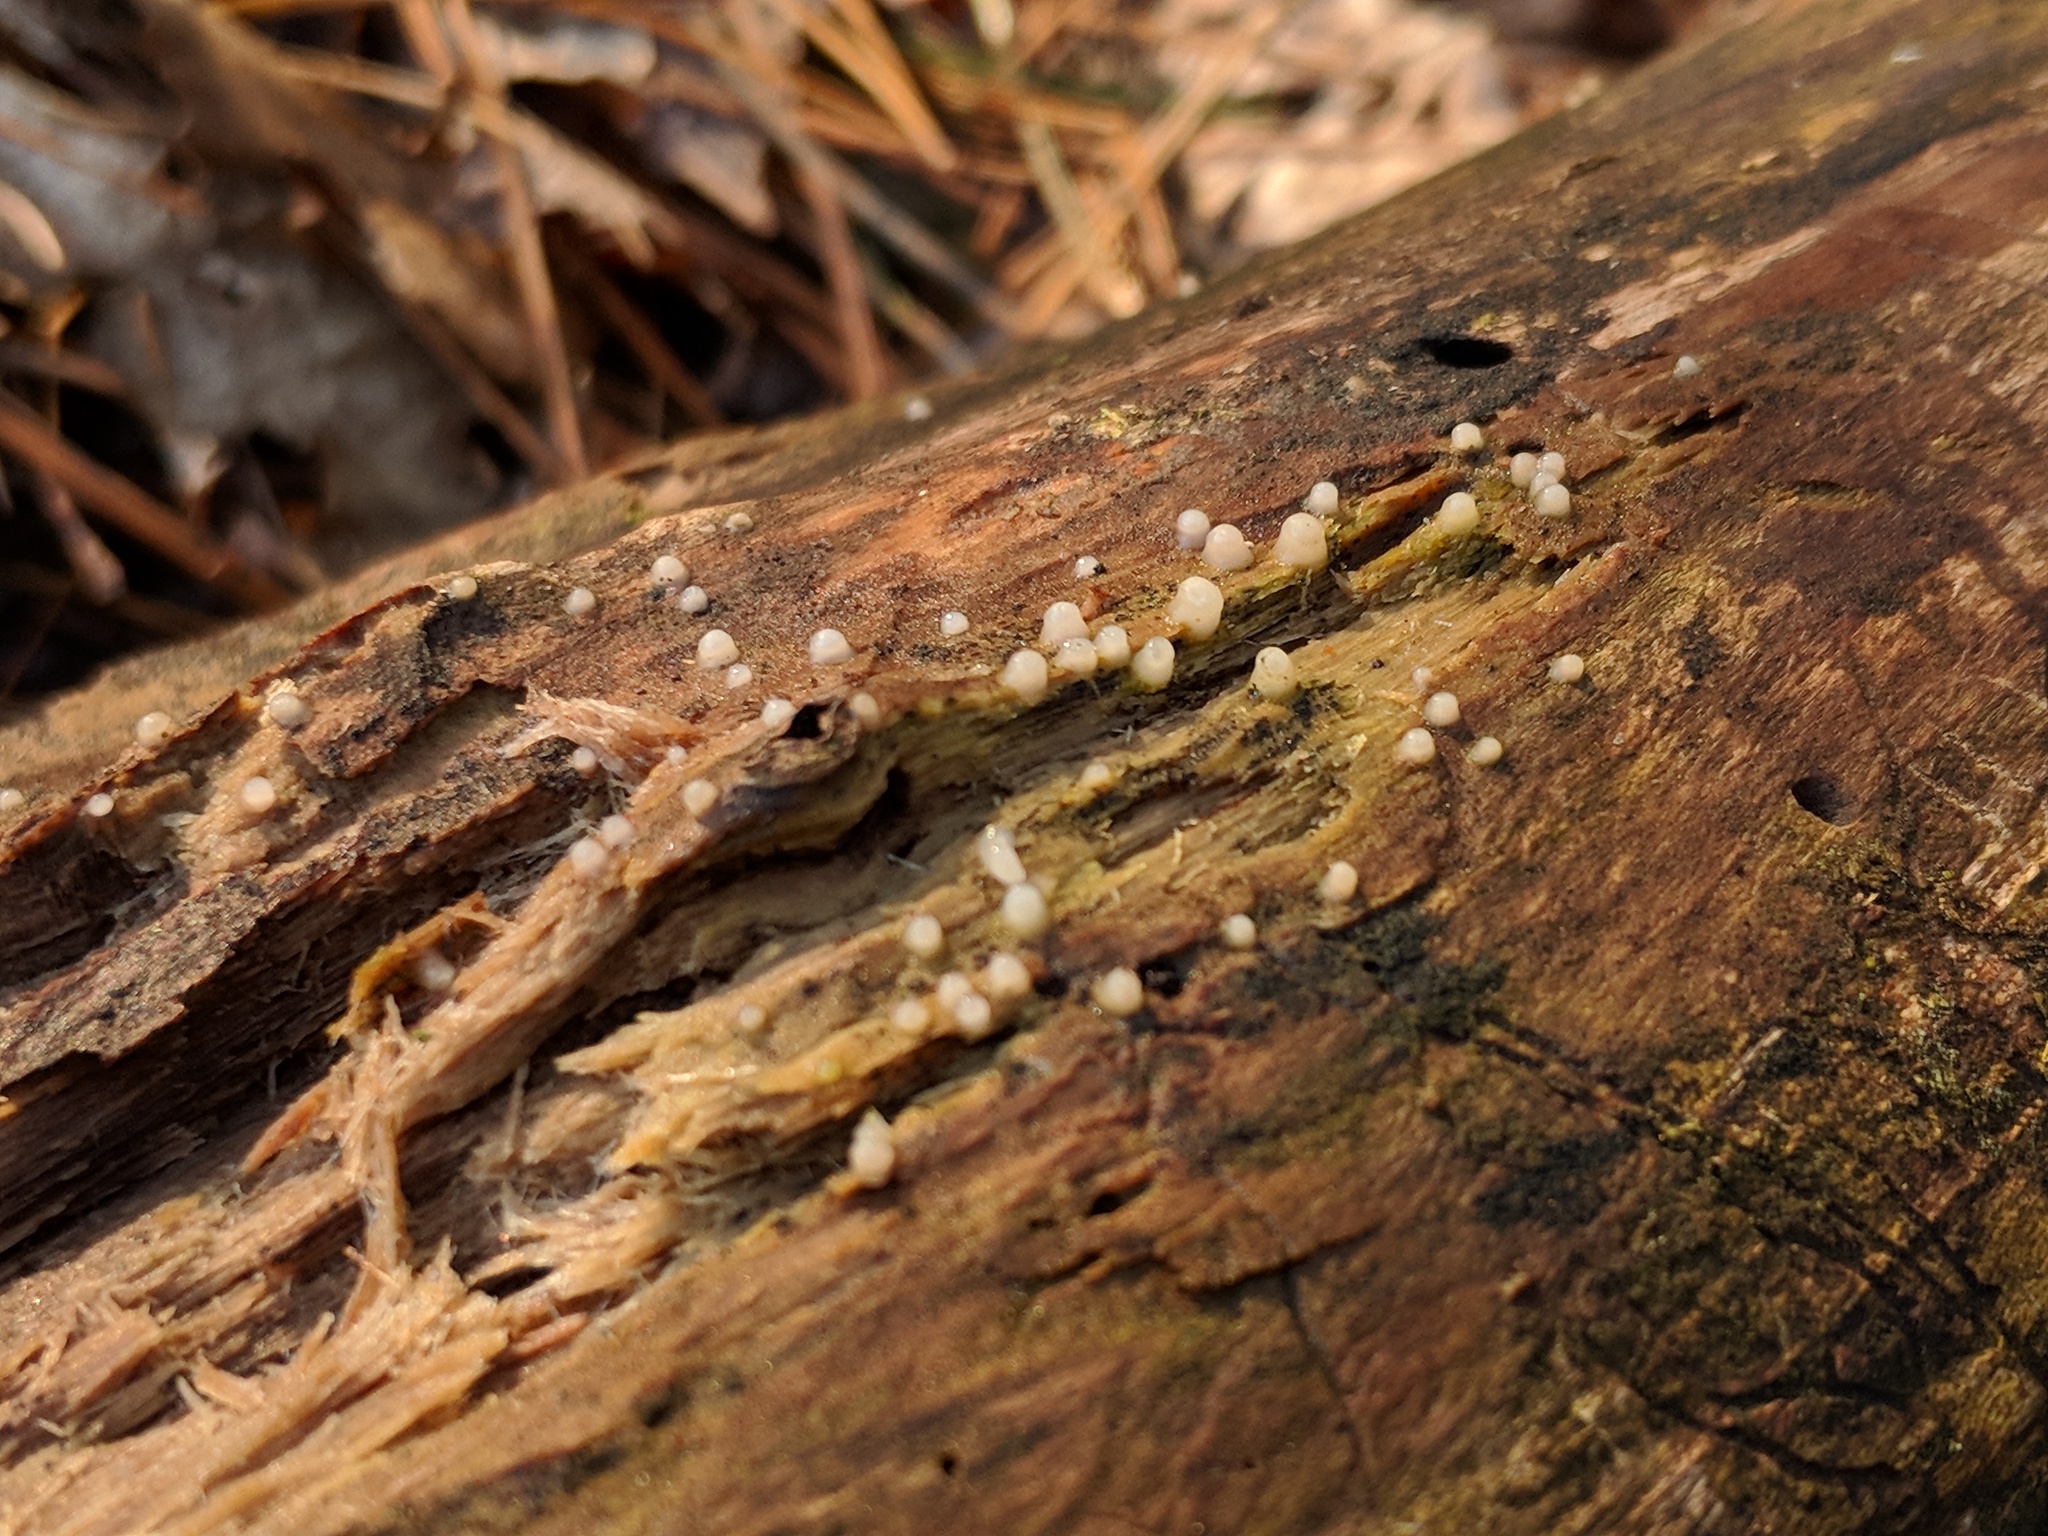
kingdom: Fungi
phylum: Basidiomycota
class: Atractiellomycetes
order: Atractiellales
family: Phleogenaceae
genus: Helicogloea
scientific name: Helicogloea compressa
